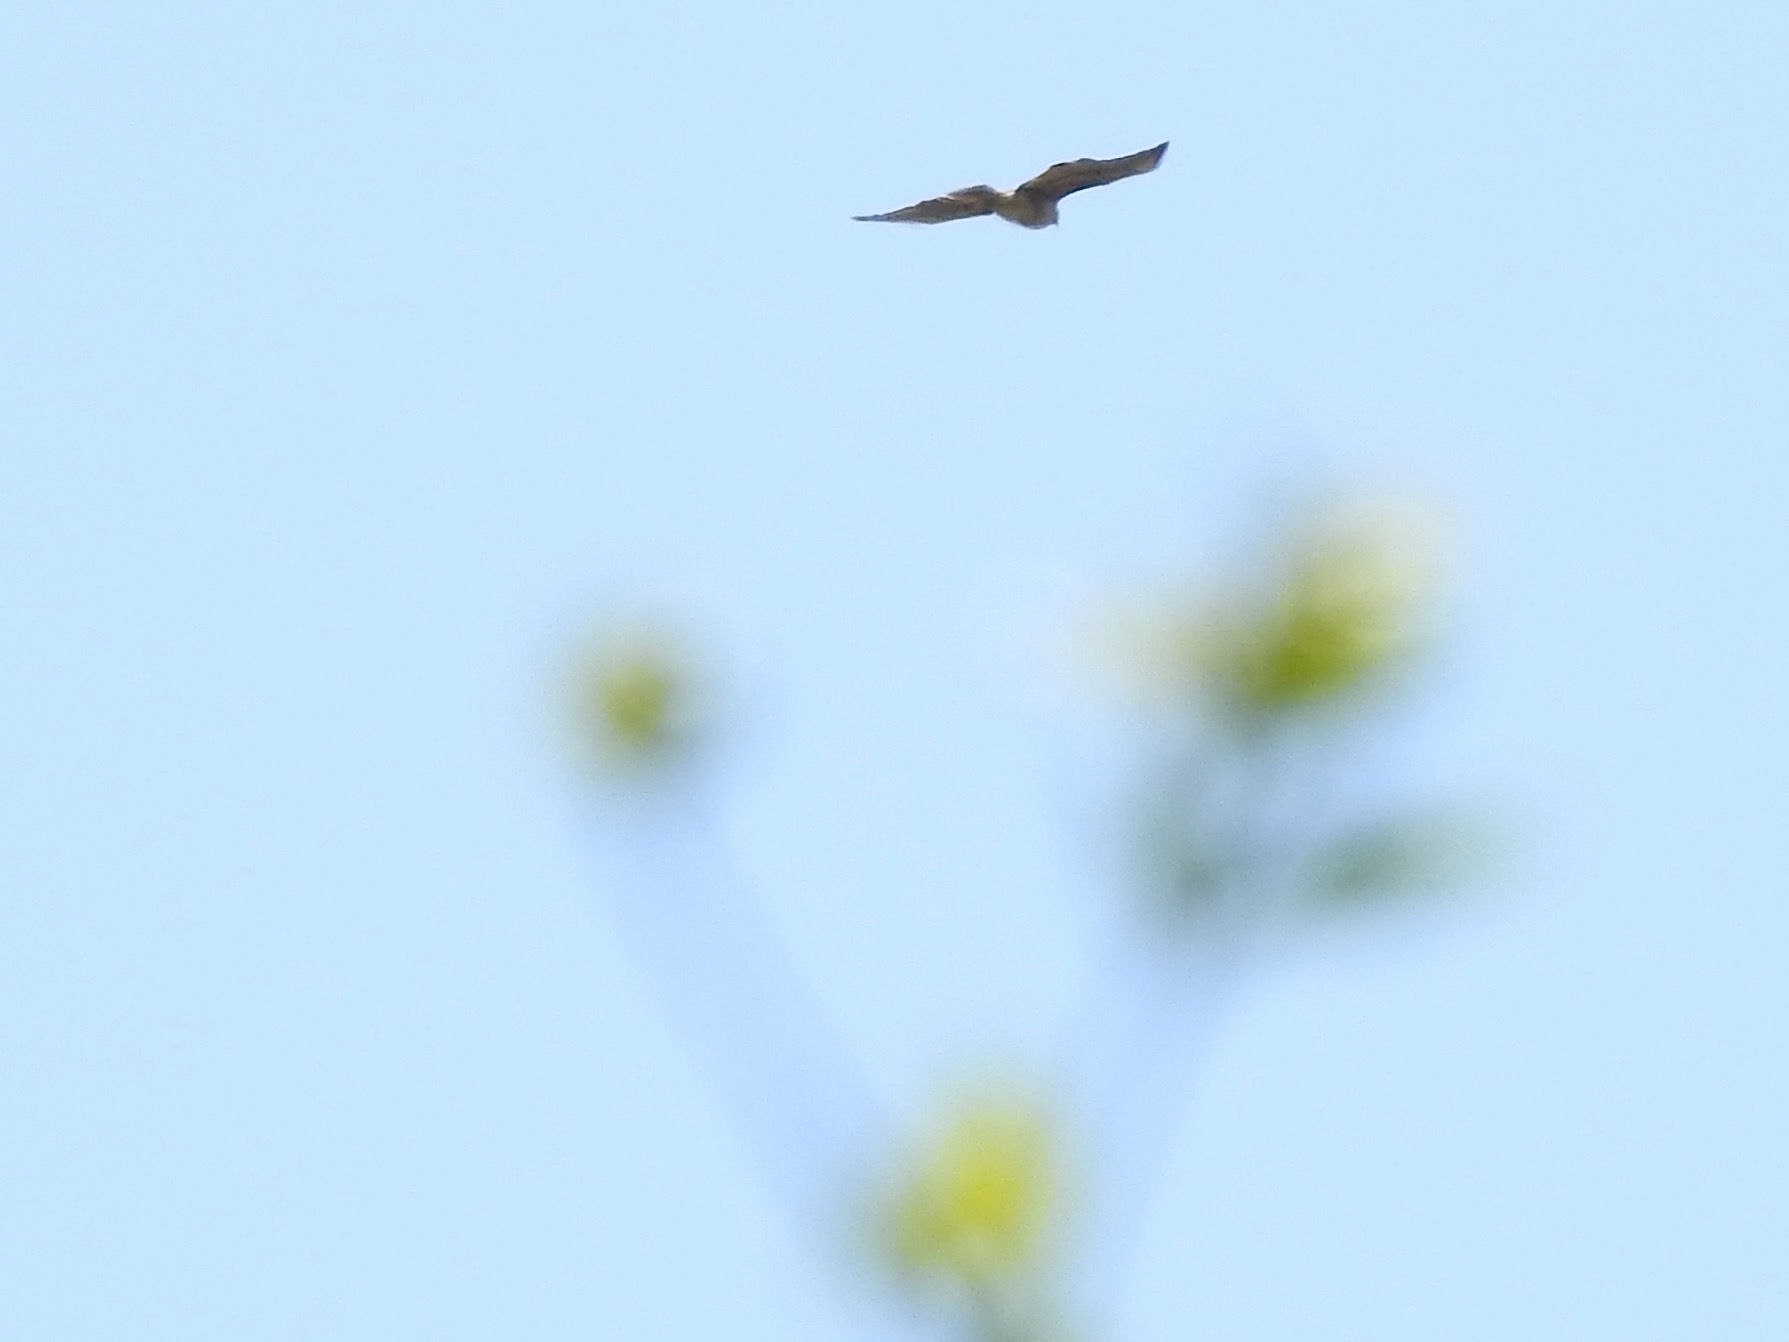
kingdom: Animalia
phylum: Chordata
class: Aves
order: Accipitriformes
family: Accipitridae
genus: Buteo
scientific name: Buteo jamaicensis
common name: Red-tailed hawk
